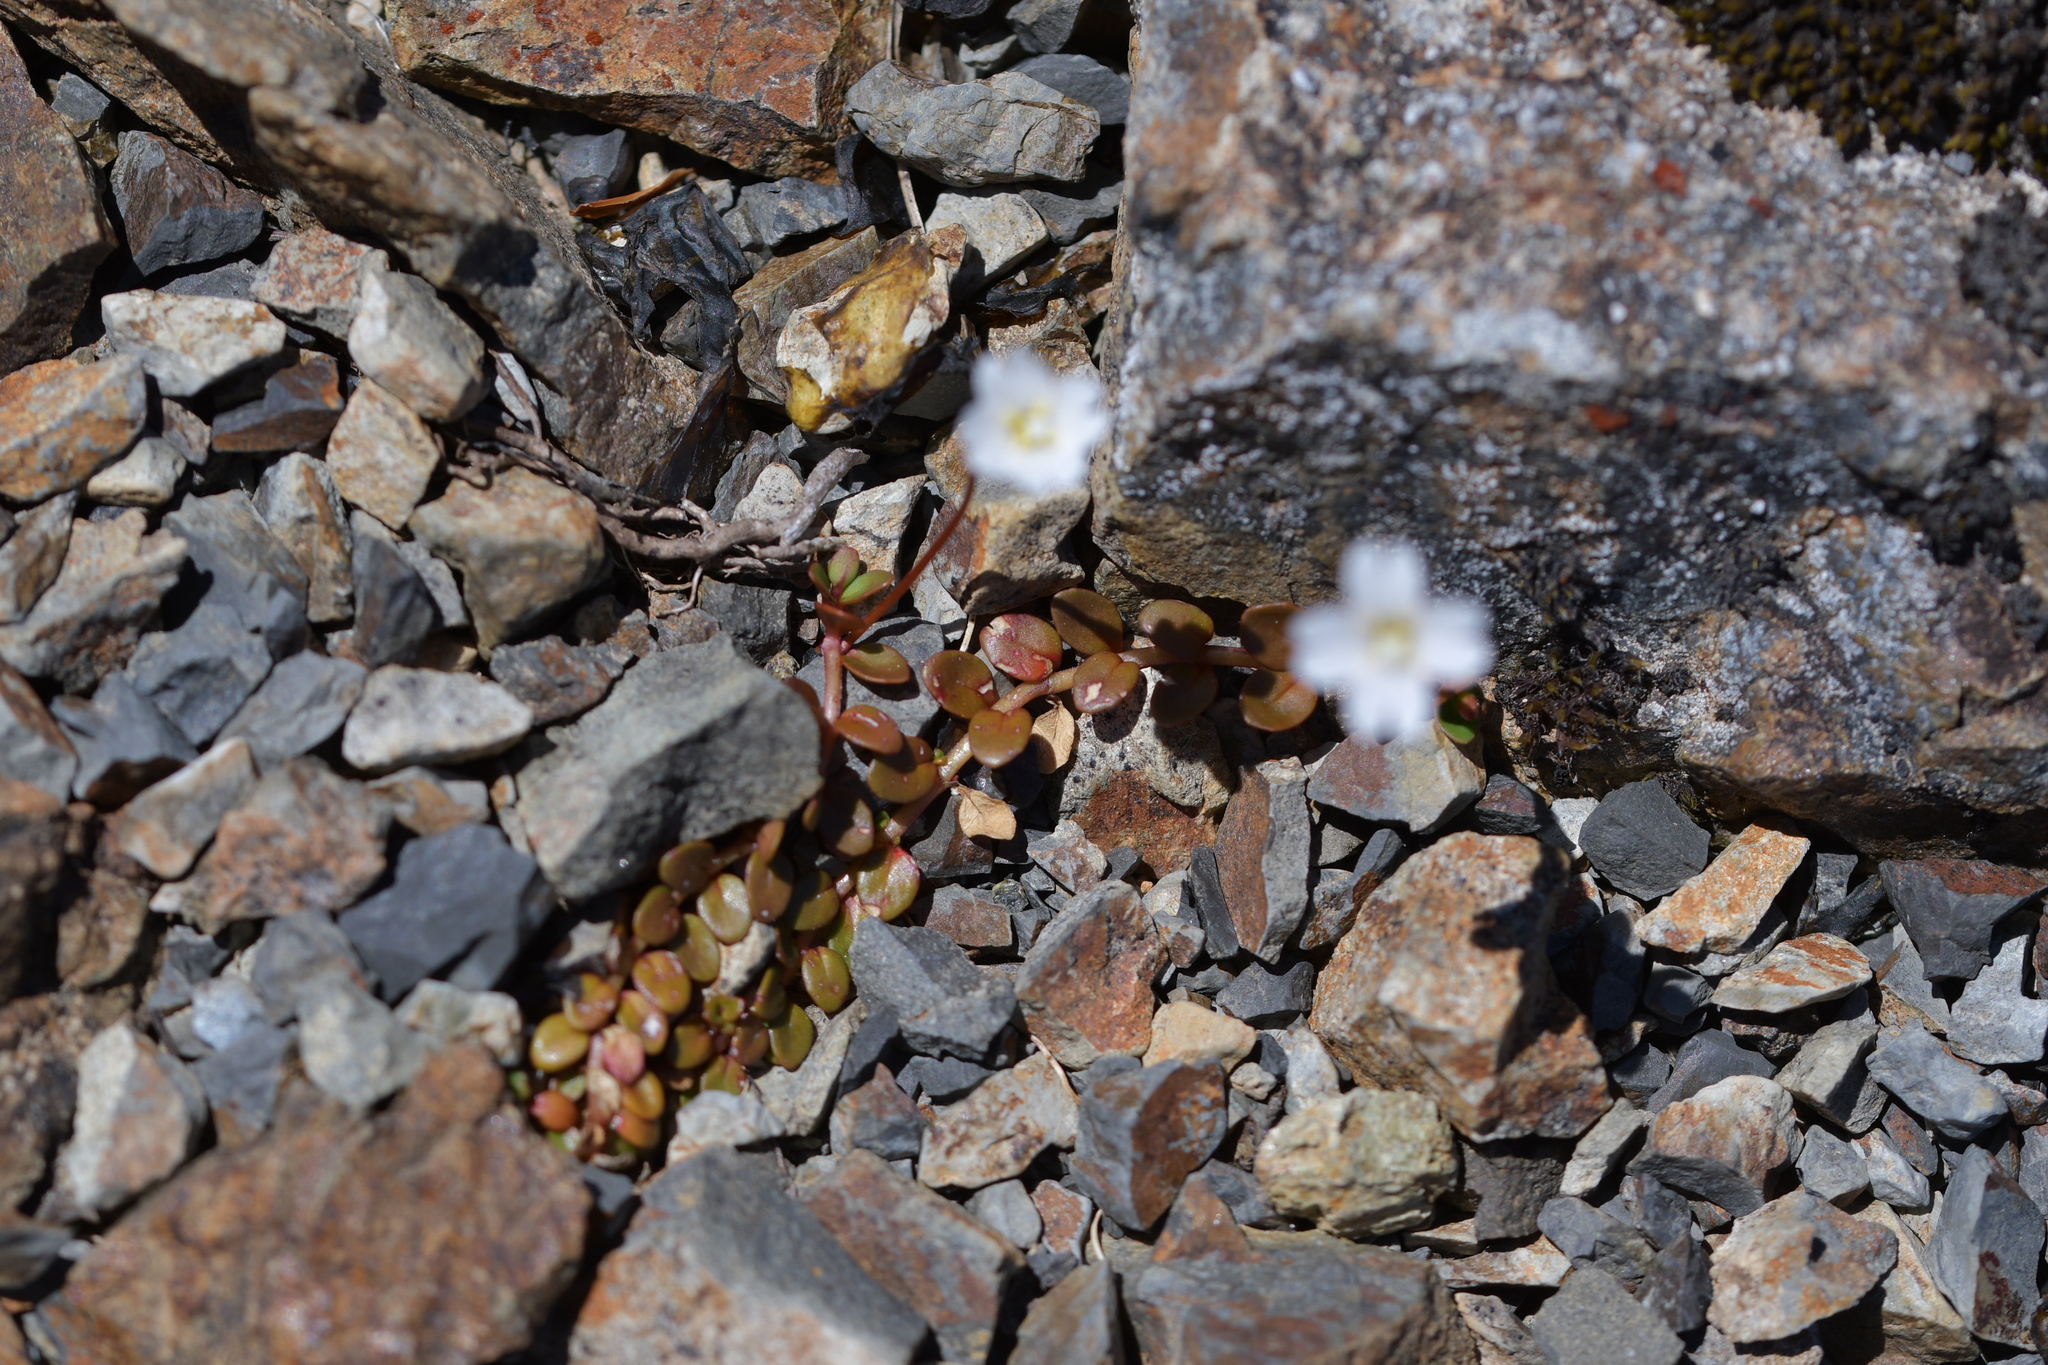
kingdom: Plantae
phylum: Tracheophyta
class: Magnoliopsida
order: Myrtales
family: Onagraceae
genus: Epilobium
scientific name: Epilobium brunnescens
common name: New zealand willowherb
